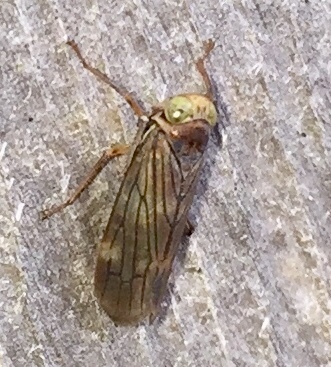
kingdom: Animalia
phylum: Arthropoda
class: Insecta
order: Hemiptera
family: Cicadellidae
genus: Jikradia
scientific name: Jikradia olitoria
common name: Coppery leafhopper
